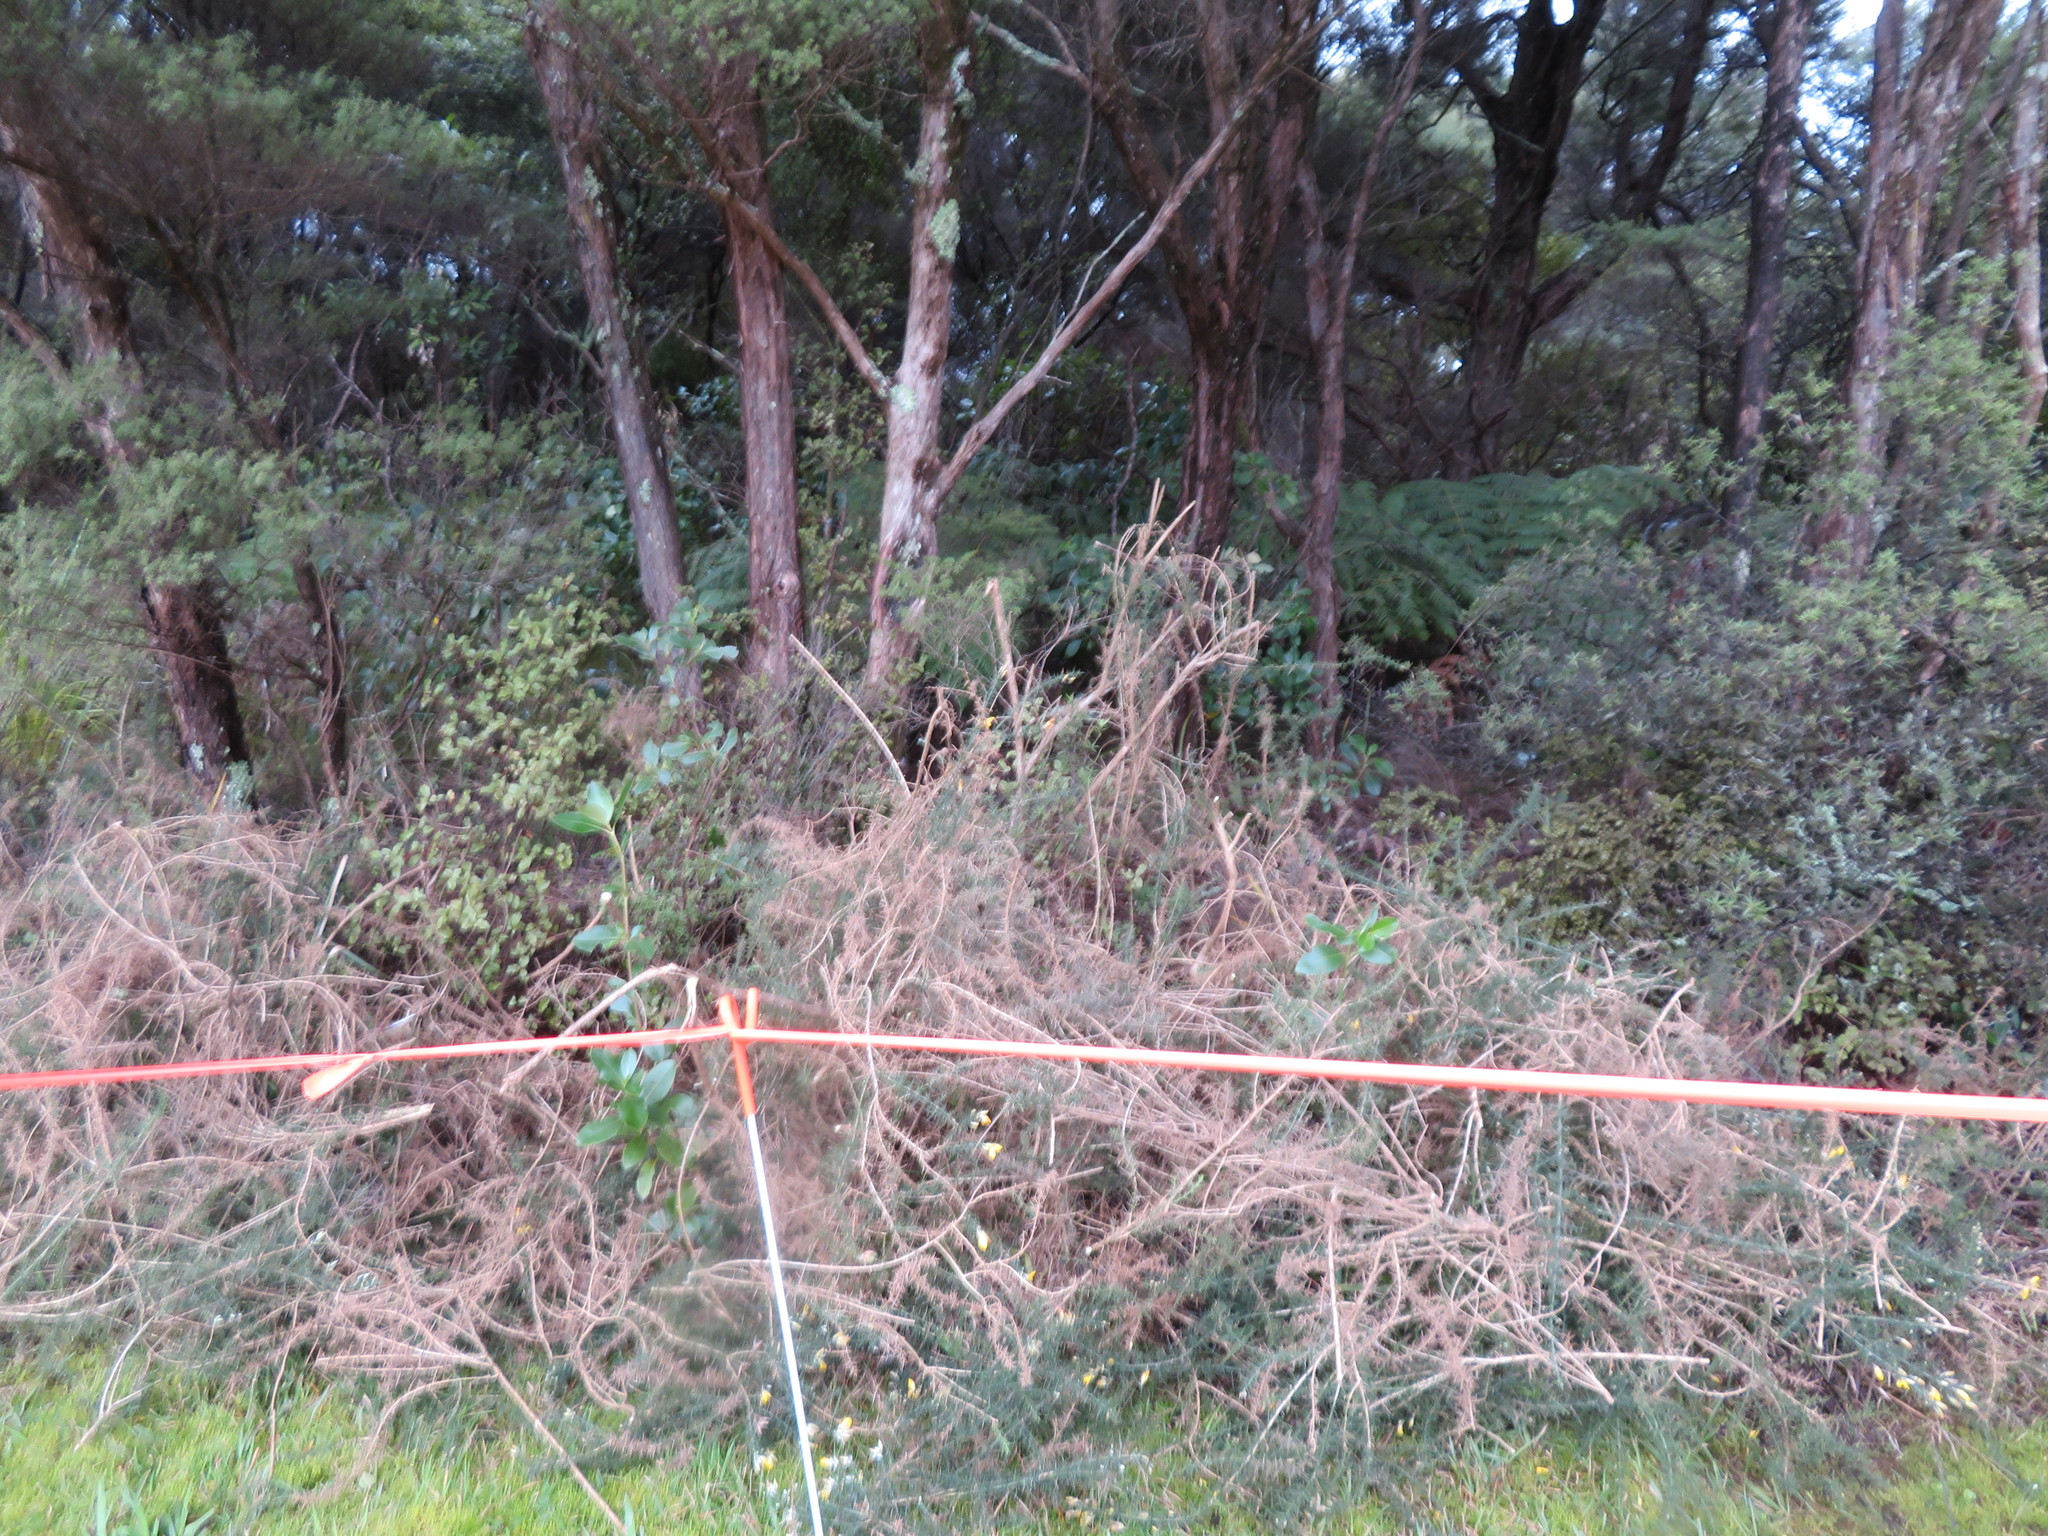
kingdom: Plantae
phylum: Tracheophyta
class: Magnoliopsida
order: Fabales
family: Fabaceae
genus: Ulex
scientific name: Ulex europaeus
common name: Common gorse
